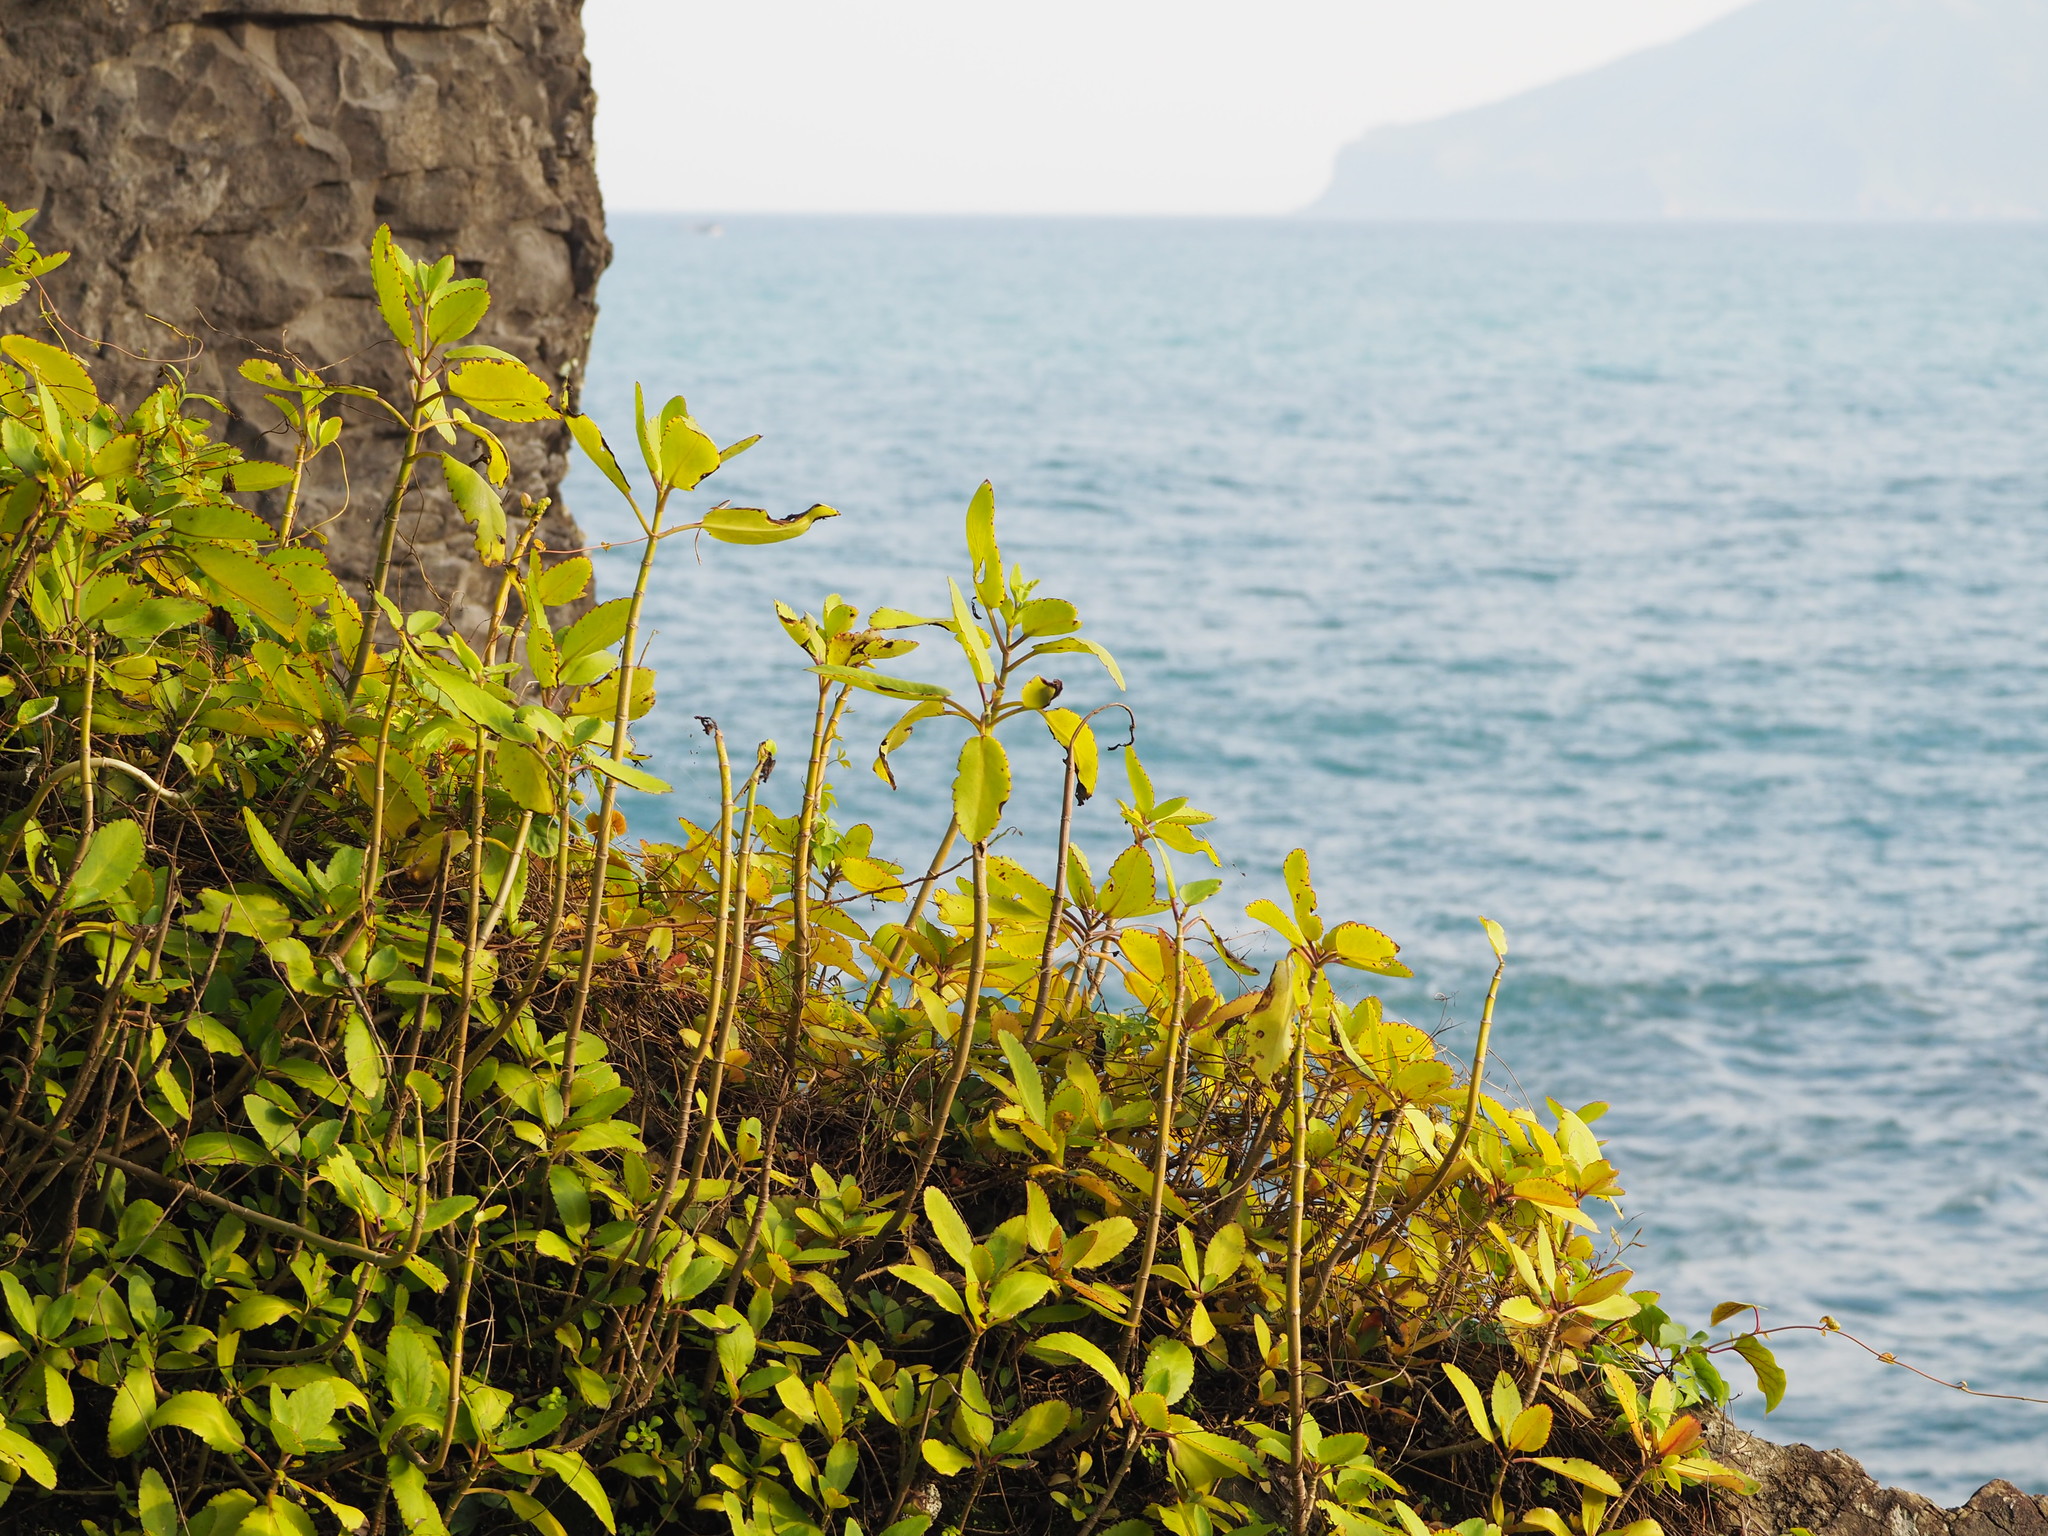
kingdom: Plantae
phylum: Tracheophyta
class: Magnoliopsida
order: Saxifragales
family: Crassulaceae
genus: Kalanchoe
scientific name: Kalanchoe pinnata
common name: Cathedral bells
